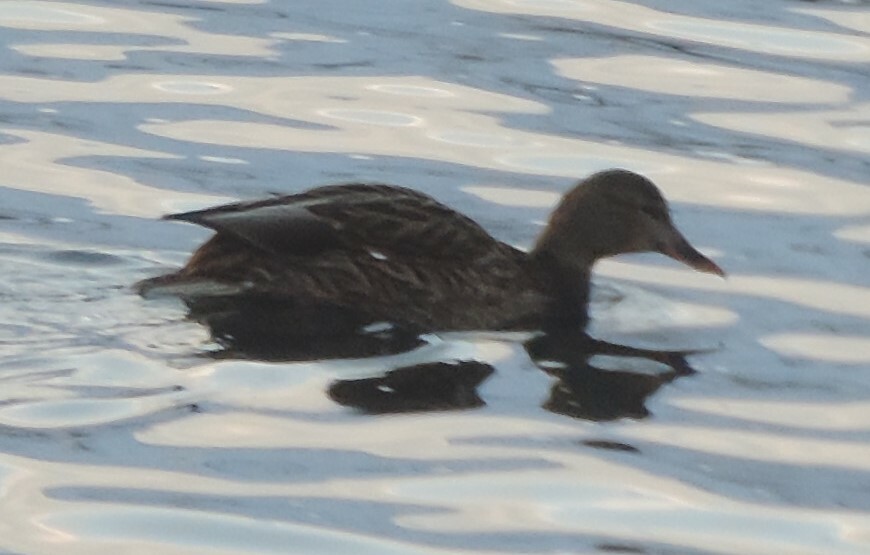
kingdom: Animalia
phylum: Chordata
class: Aves
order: Anseriformes
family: Anatidae
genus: Anas
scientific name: Anas platyrhynchos
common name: Mallard
